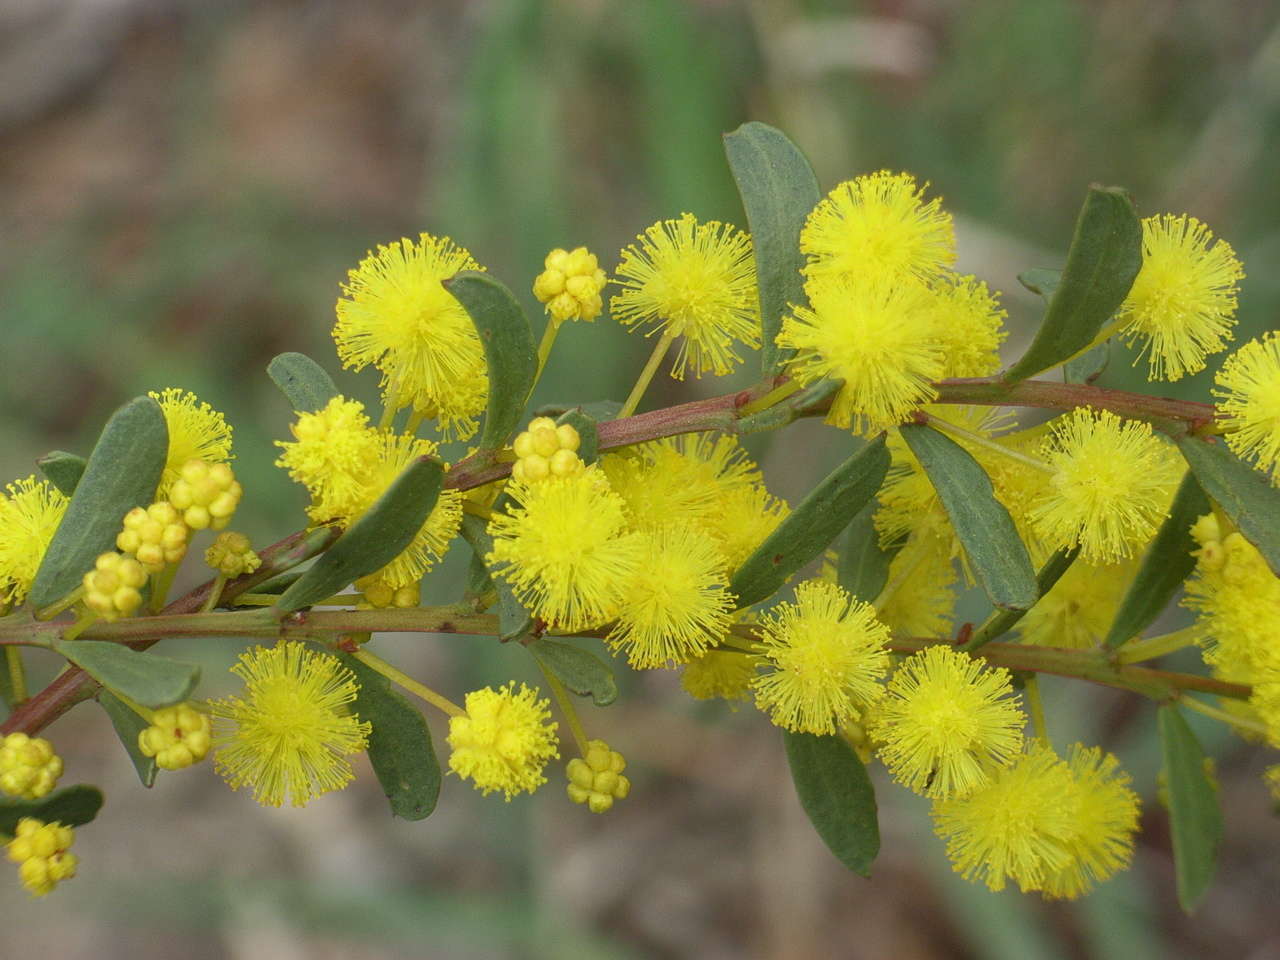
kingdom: Plantae
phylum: Tracheophyta
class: Magnoliopsida
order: Fabales
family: Fabaceae
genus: Acacia
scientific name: Acacia acinacea
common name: Gold-dust acacia
